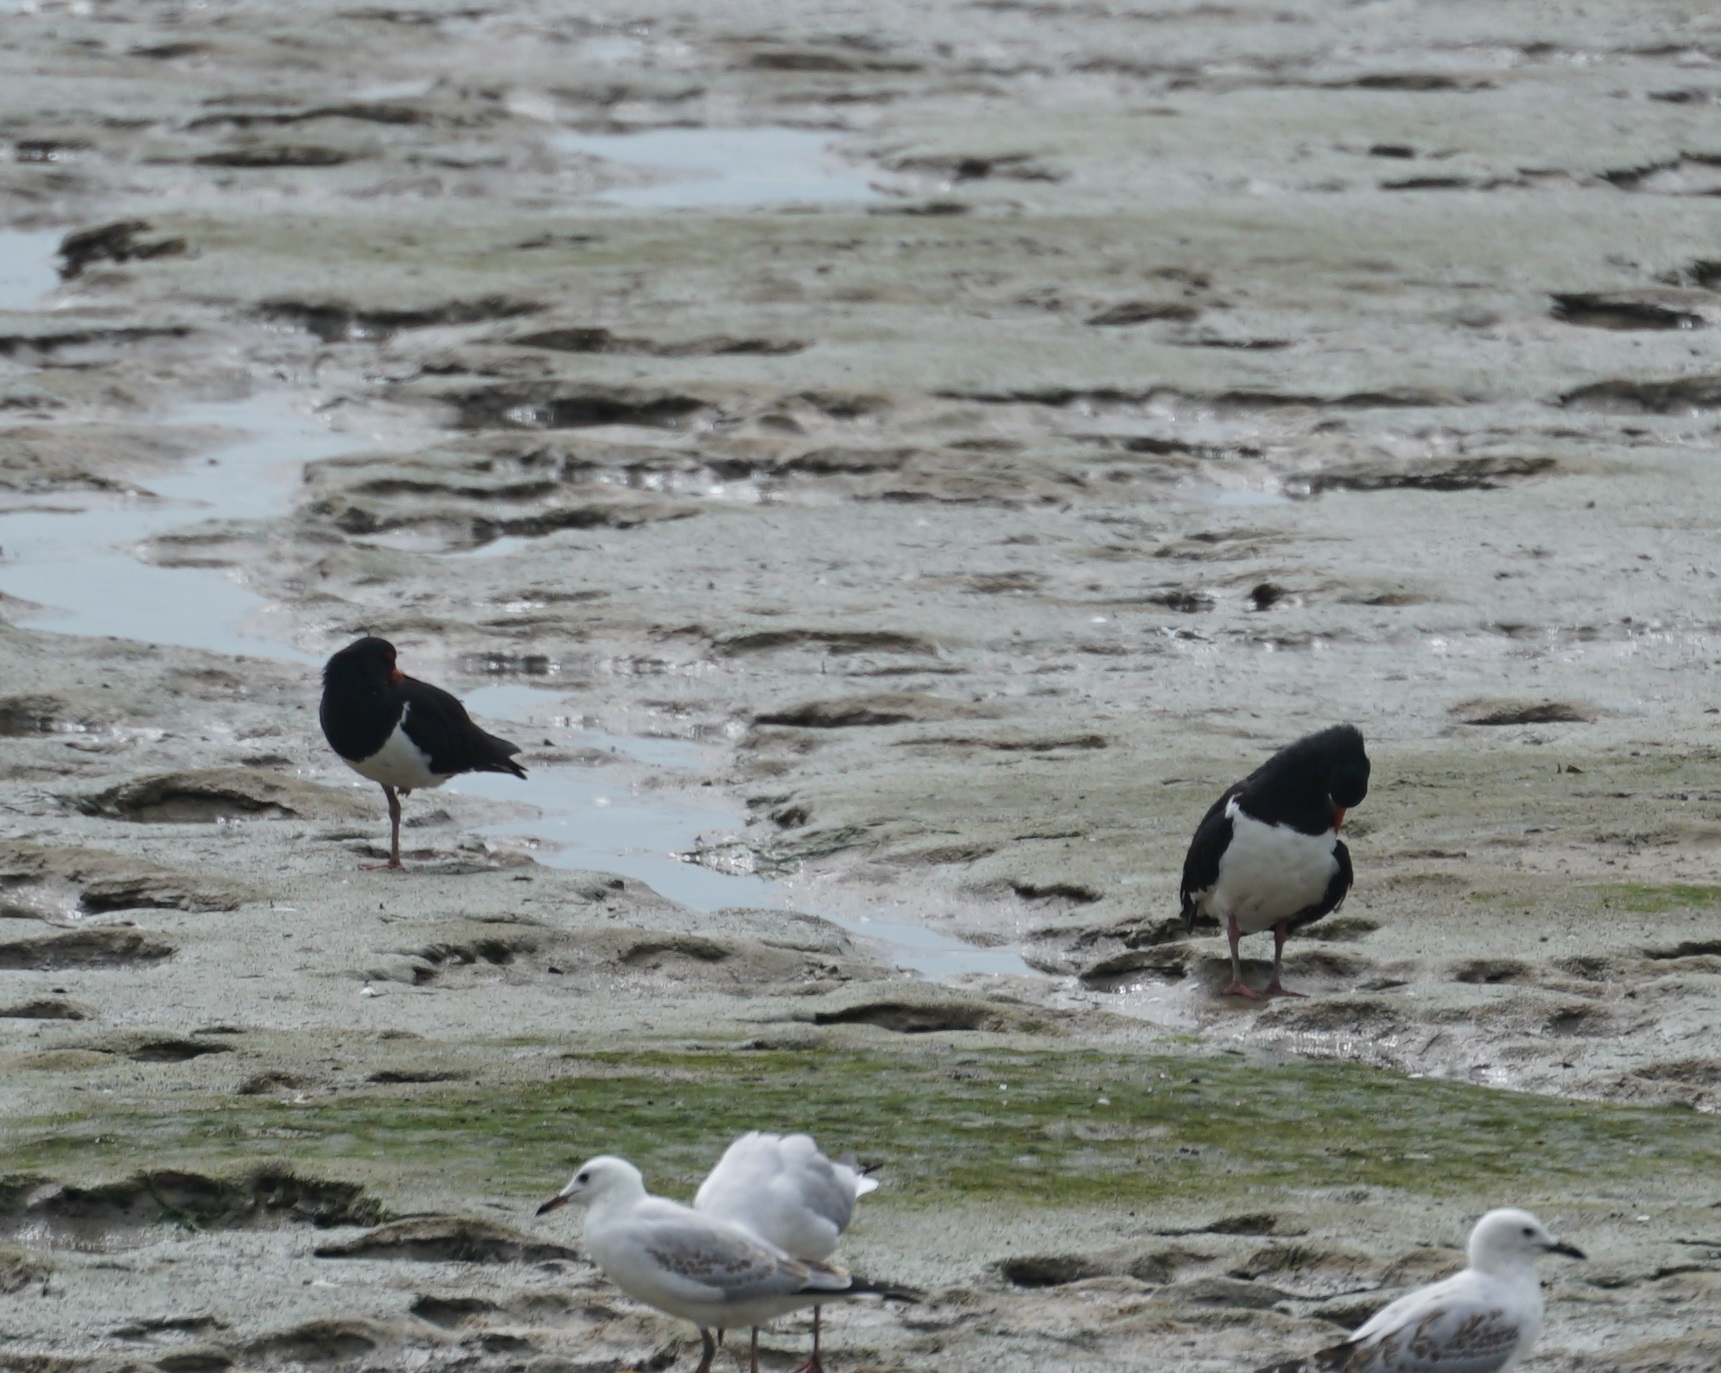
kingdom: Animalia
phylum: Chordata
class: Aves
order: Charadriiformes
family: Haematopodidae
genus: Haematopus
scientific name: Haematopus longirostris
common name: Pied oystercatcher
